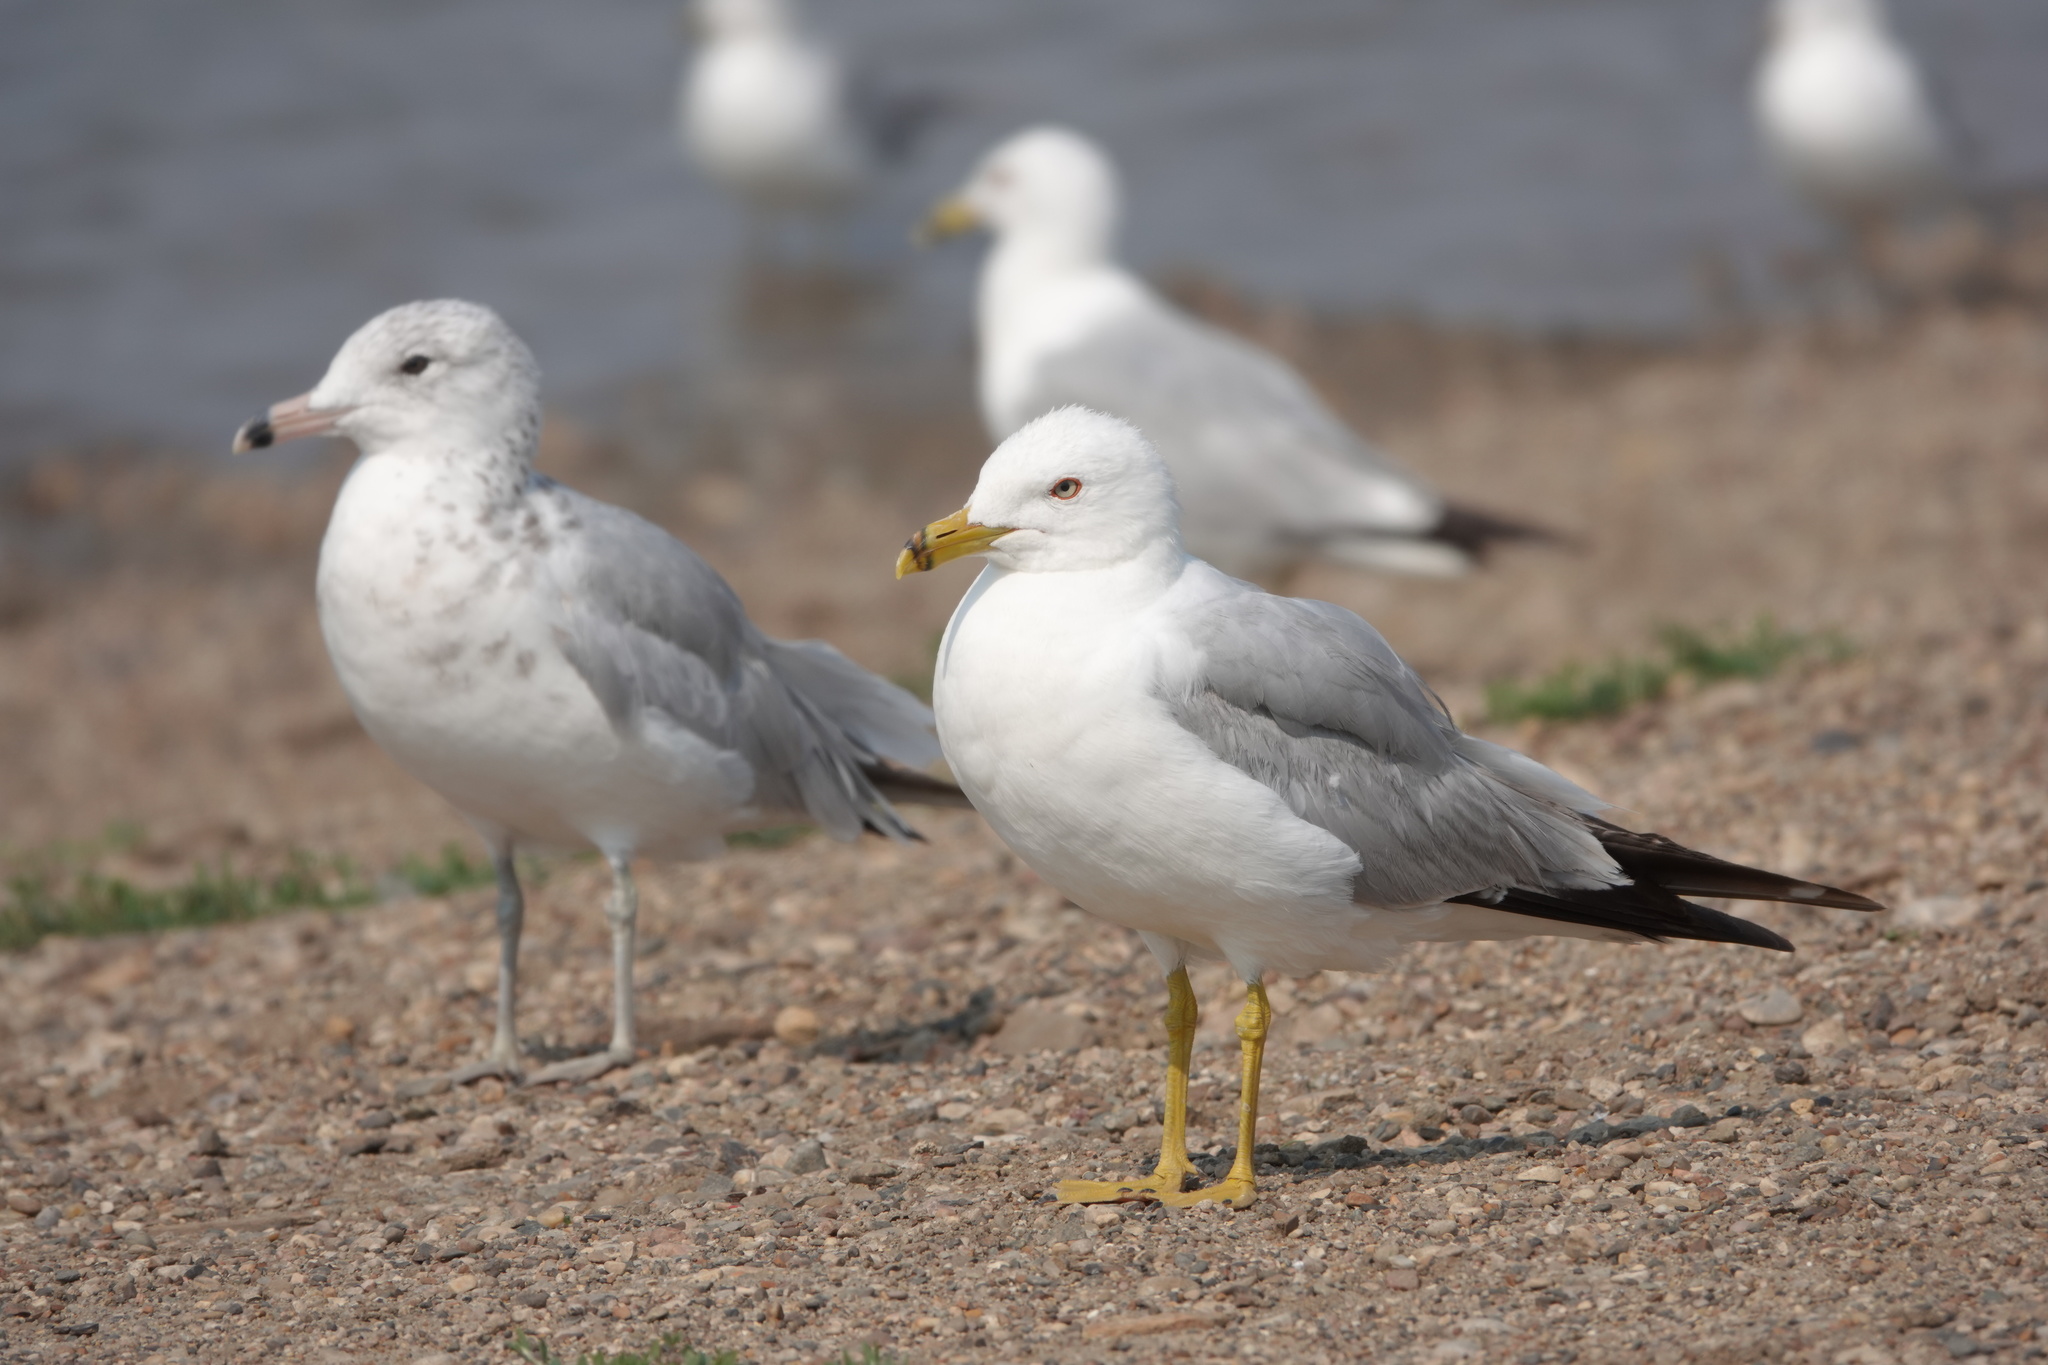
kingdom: Animalia
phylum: Chordata
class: Aves
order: Charadriiformes
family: Laridae
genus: Larus
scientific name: Larus delawarensis
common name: Ring-billed gull
